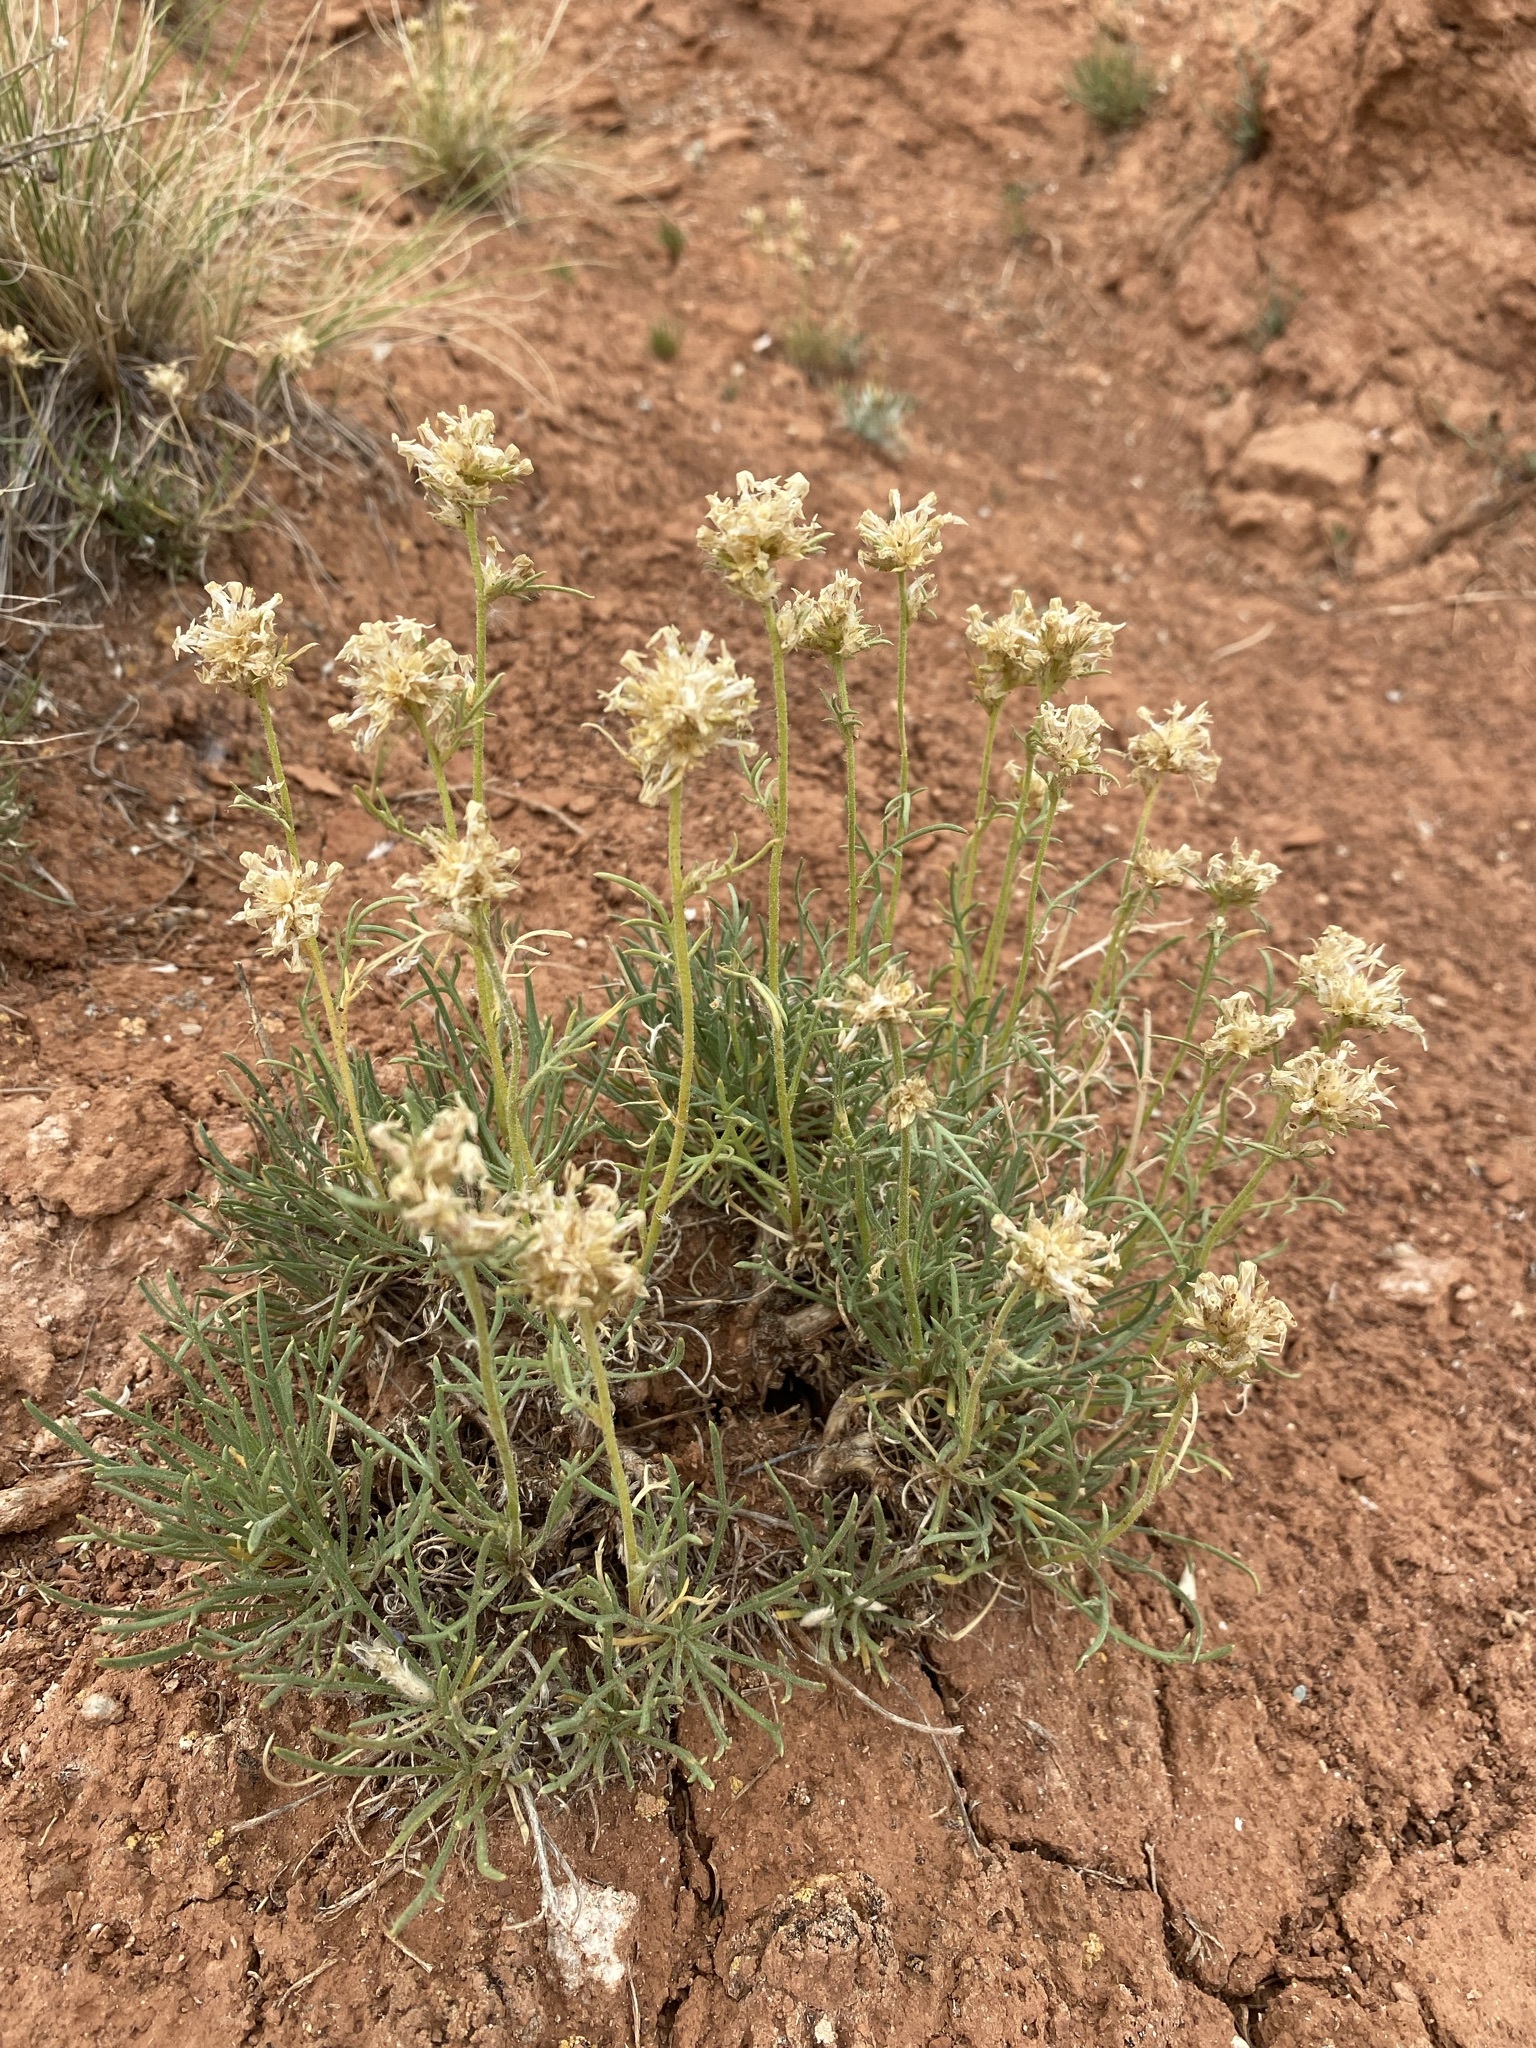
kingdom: Plantae
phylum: Tracheophyta
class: Magnoliopsida
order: Ericales
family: Polemoniaceae
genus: Ipomopsis
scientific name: Ipomopsis spicata
